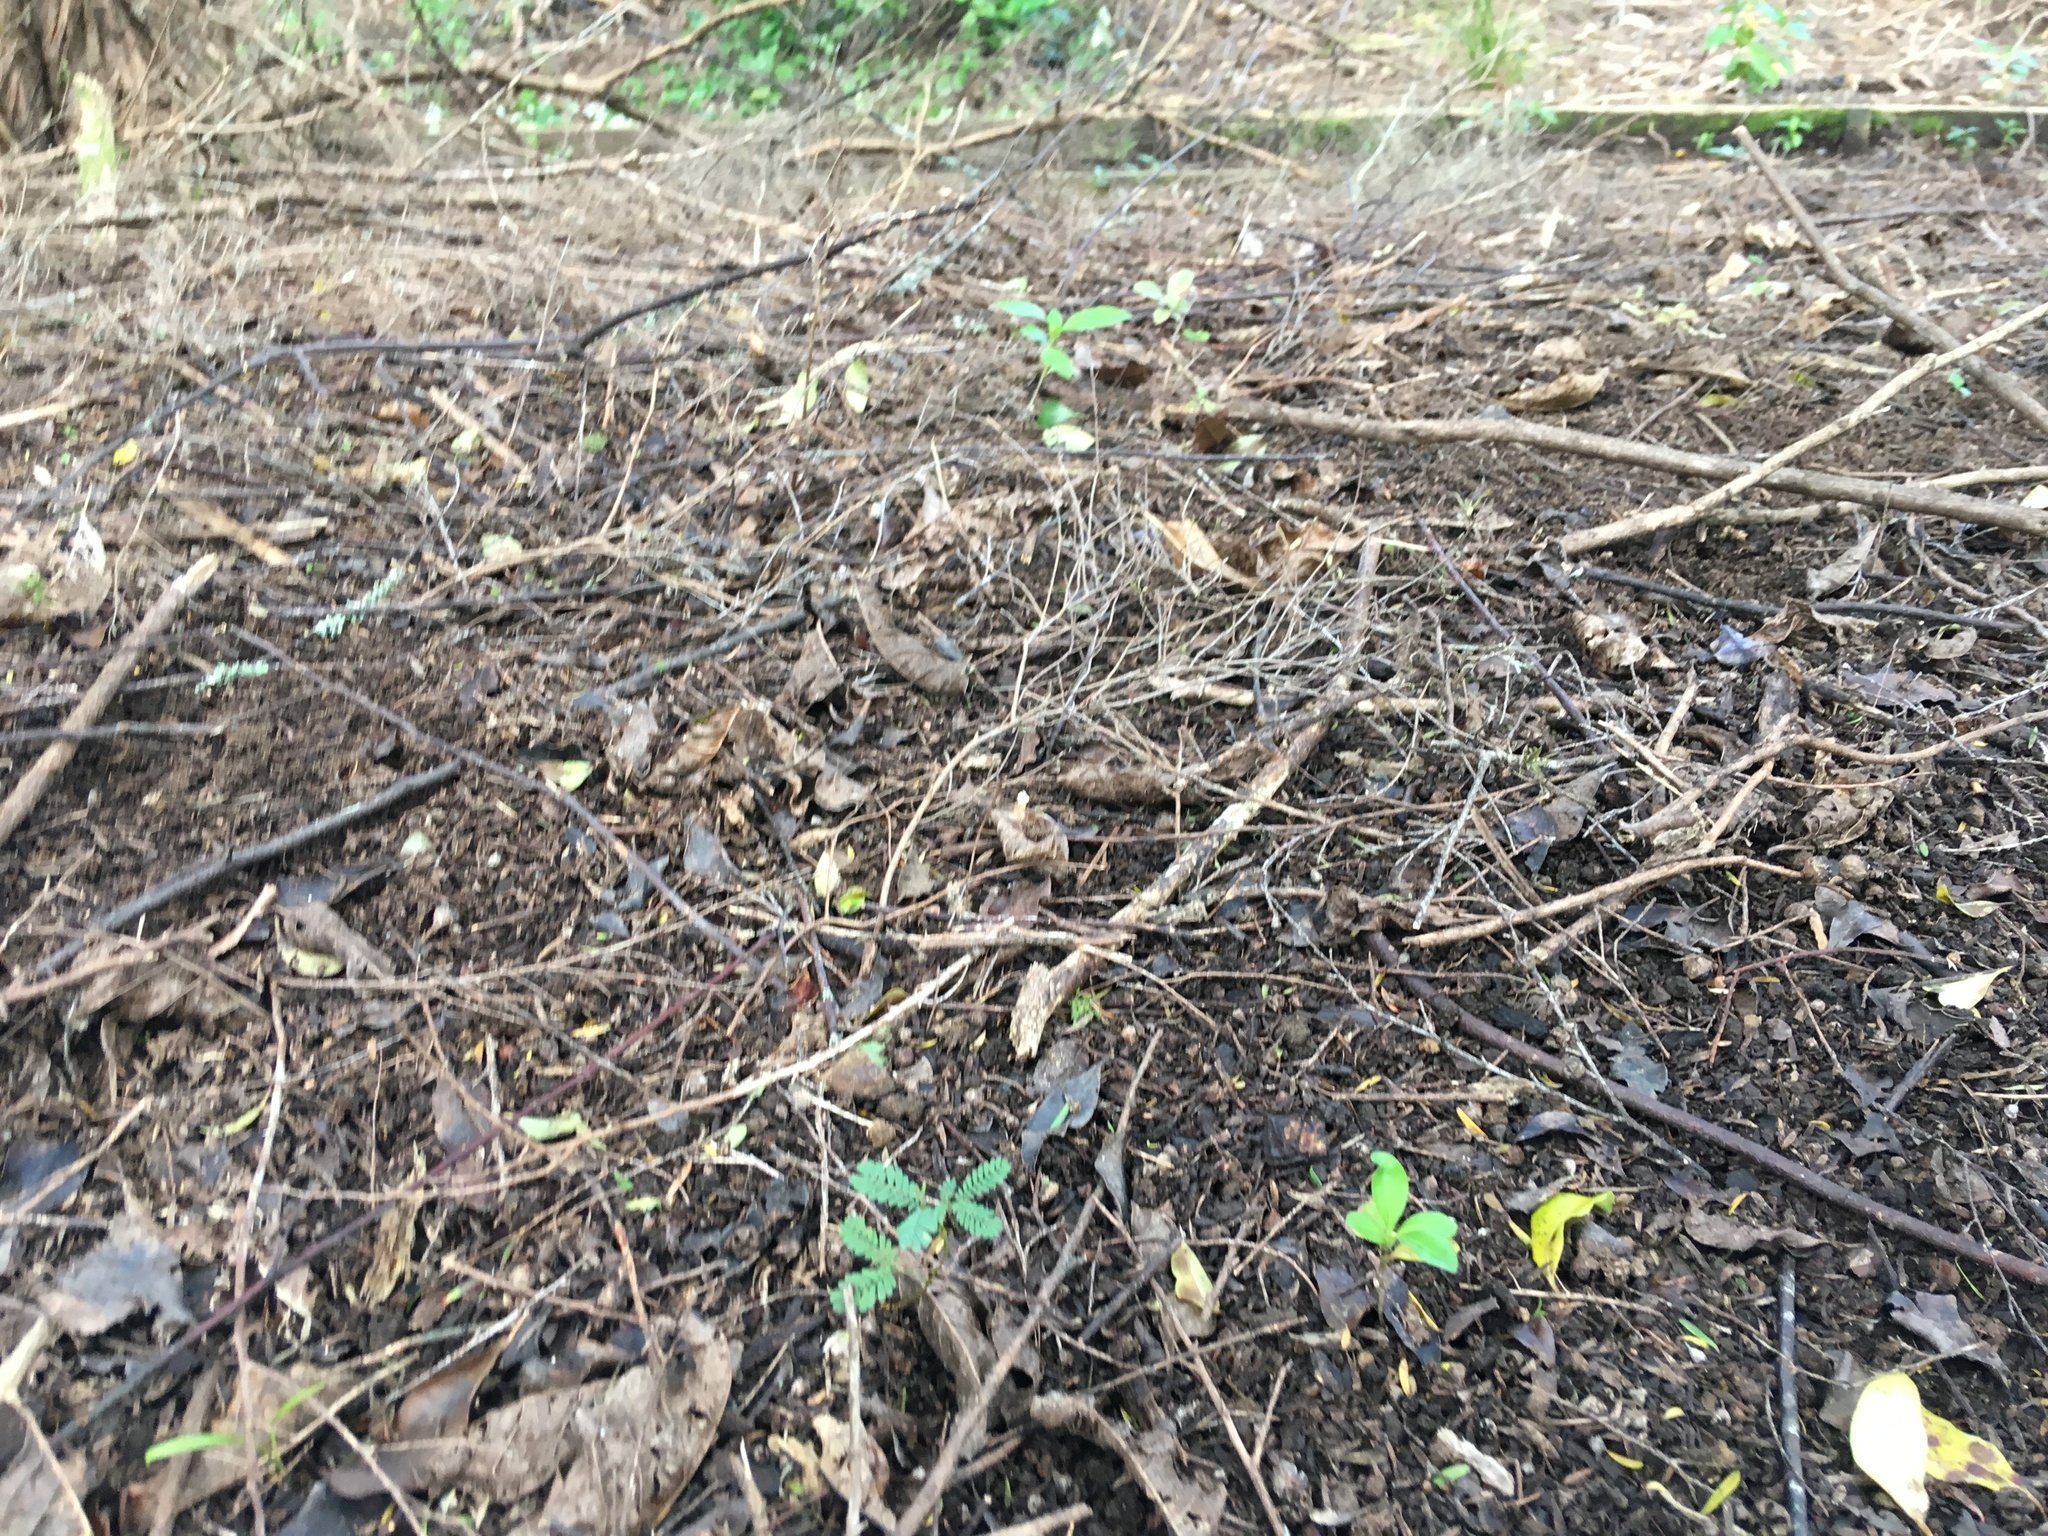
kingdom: Plantae
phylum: Tracheophyta
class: Magnoliopsida
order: Fabales
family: Fabaceae
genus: Paraserianthes
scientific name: Paraserianthes lophantha
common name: Plume albizia
